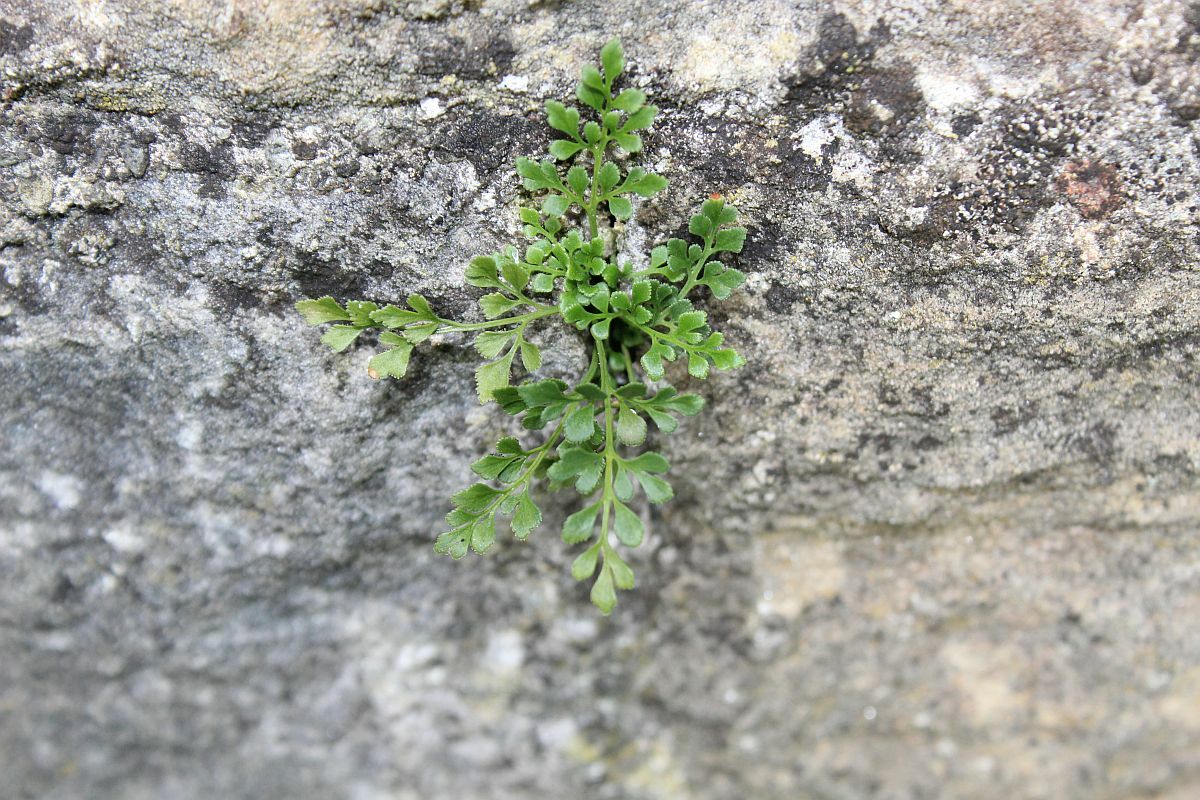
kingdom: Plantae
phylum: Tracheophyta
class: Polypodiopsida
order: Polypodiales
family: Aspleniaceae
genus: Asplenium
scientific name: Asplenium ruta-muraria
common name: Wall-rue
